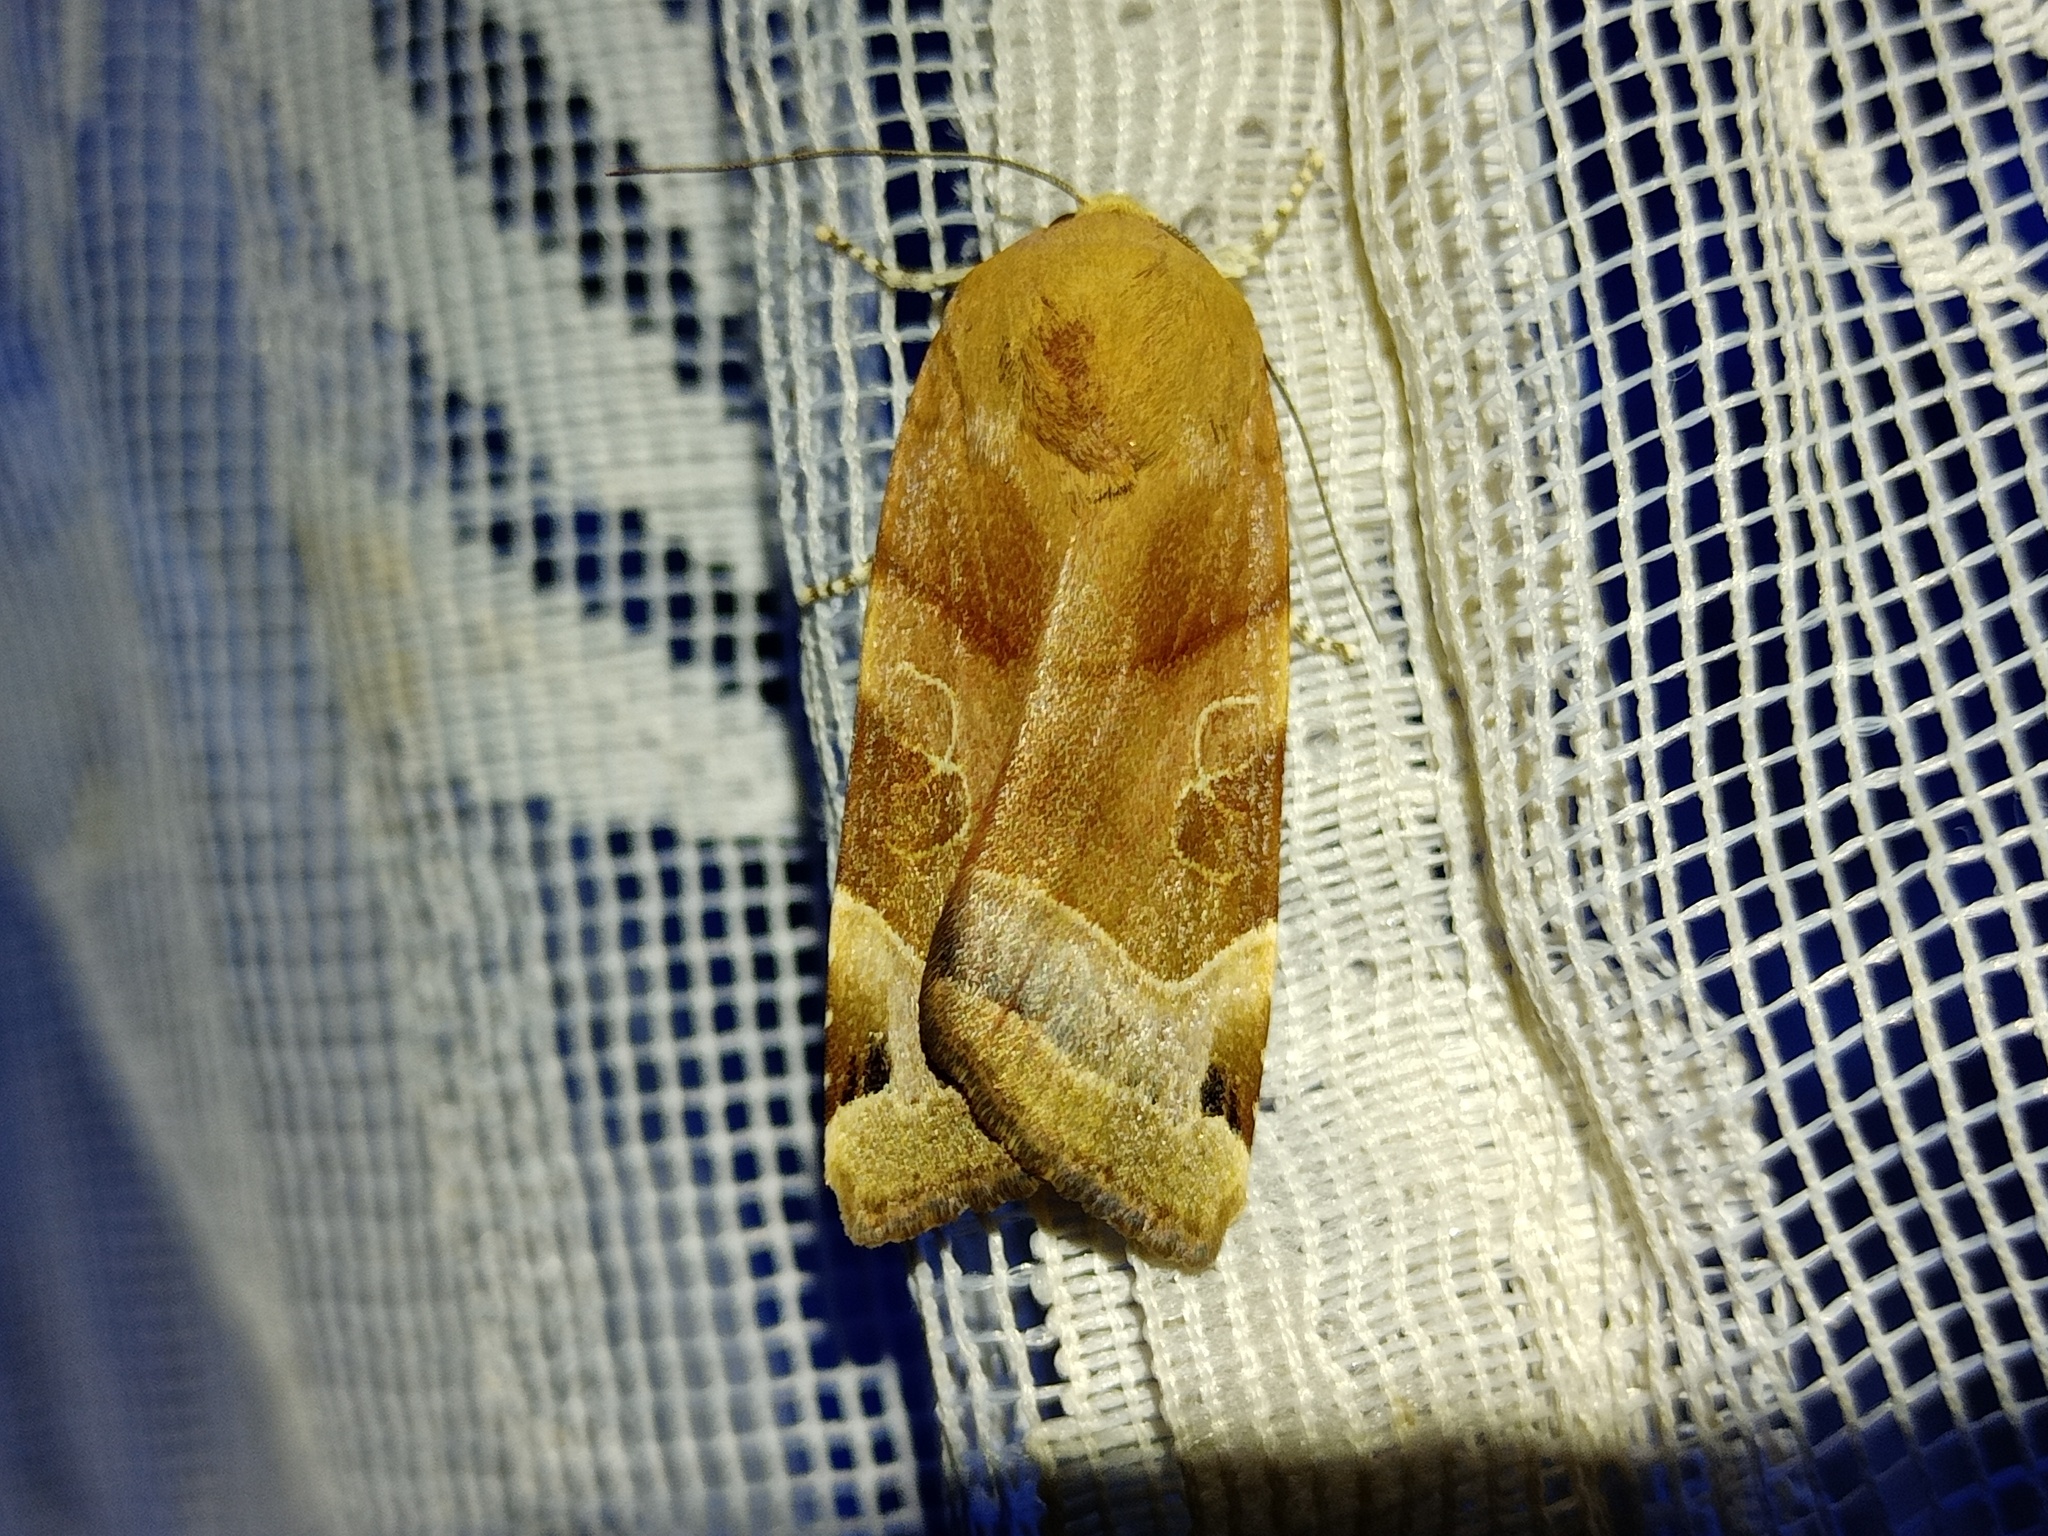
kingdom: Animalia
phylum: Arthropoda
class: Insecta
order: Lepidoptera
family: Noctuidae
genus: Noctua
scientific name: Noctua fimbriata
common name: Broad-bordered yellow underwing
